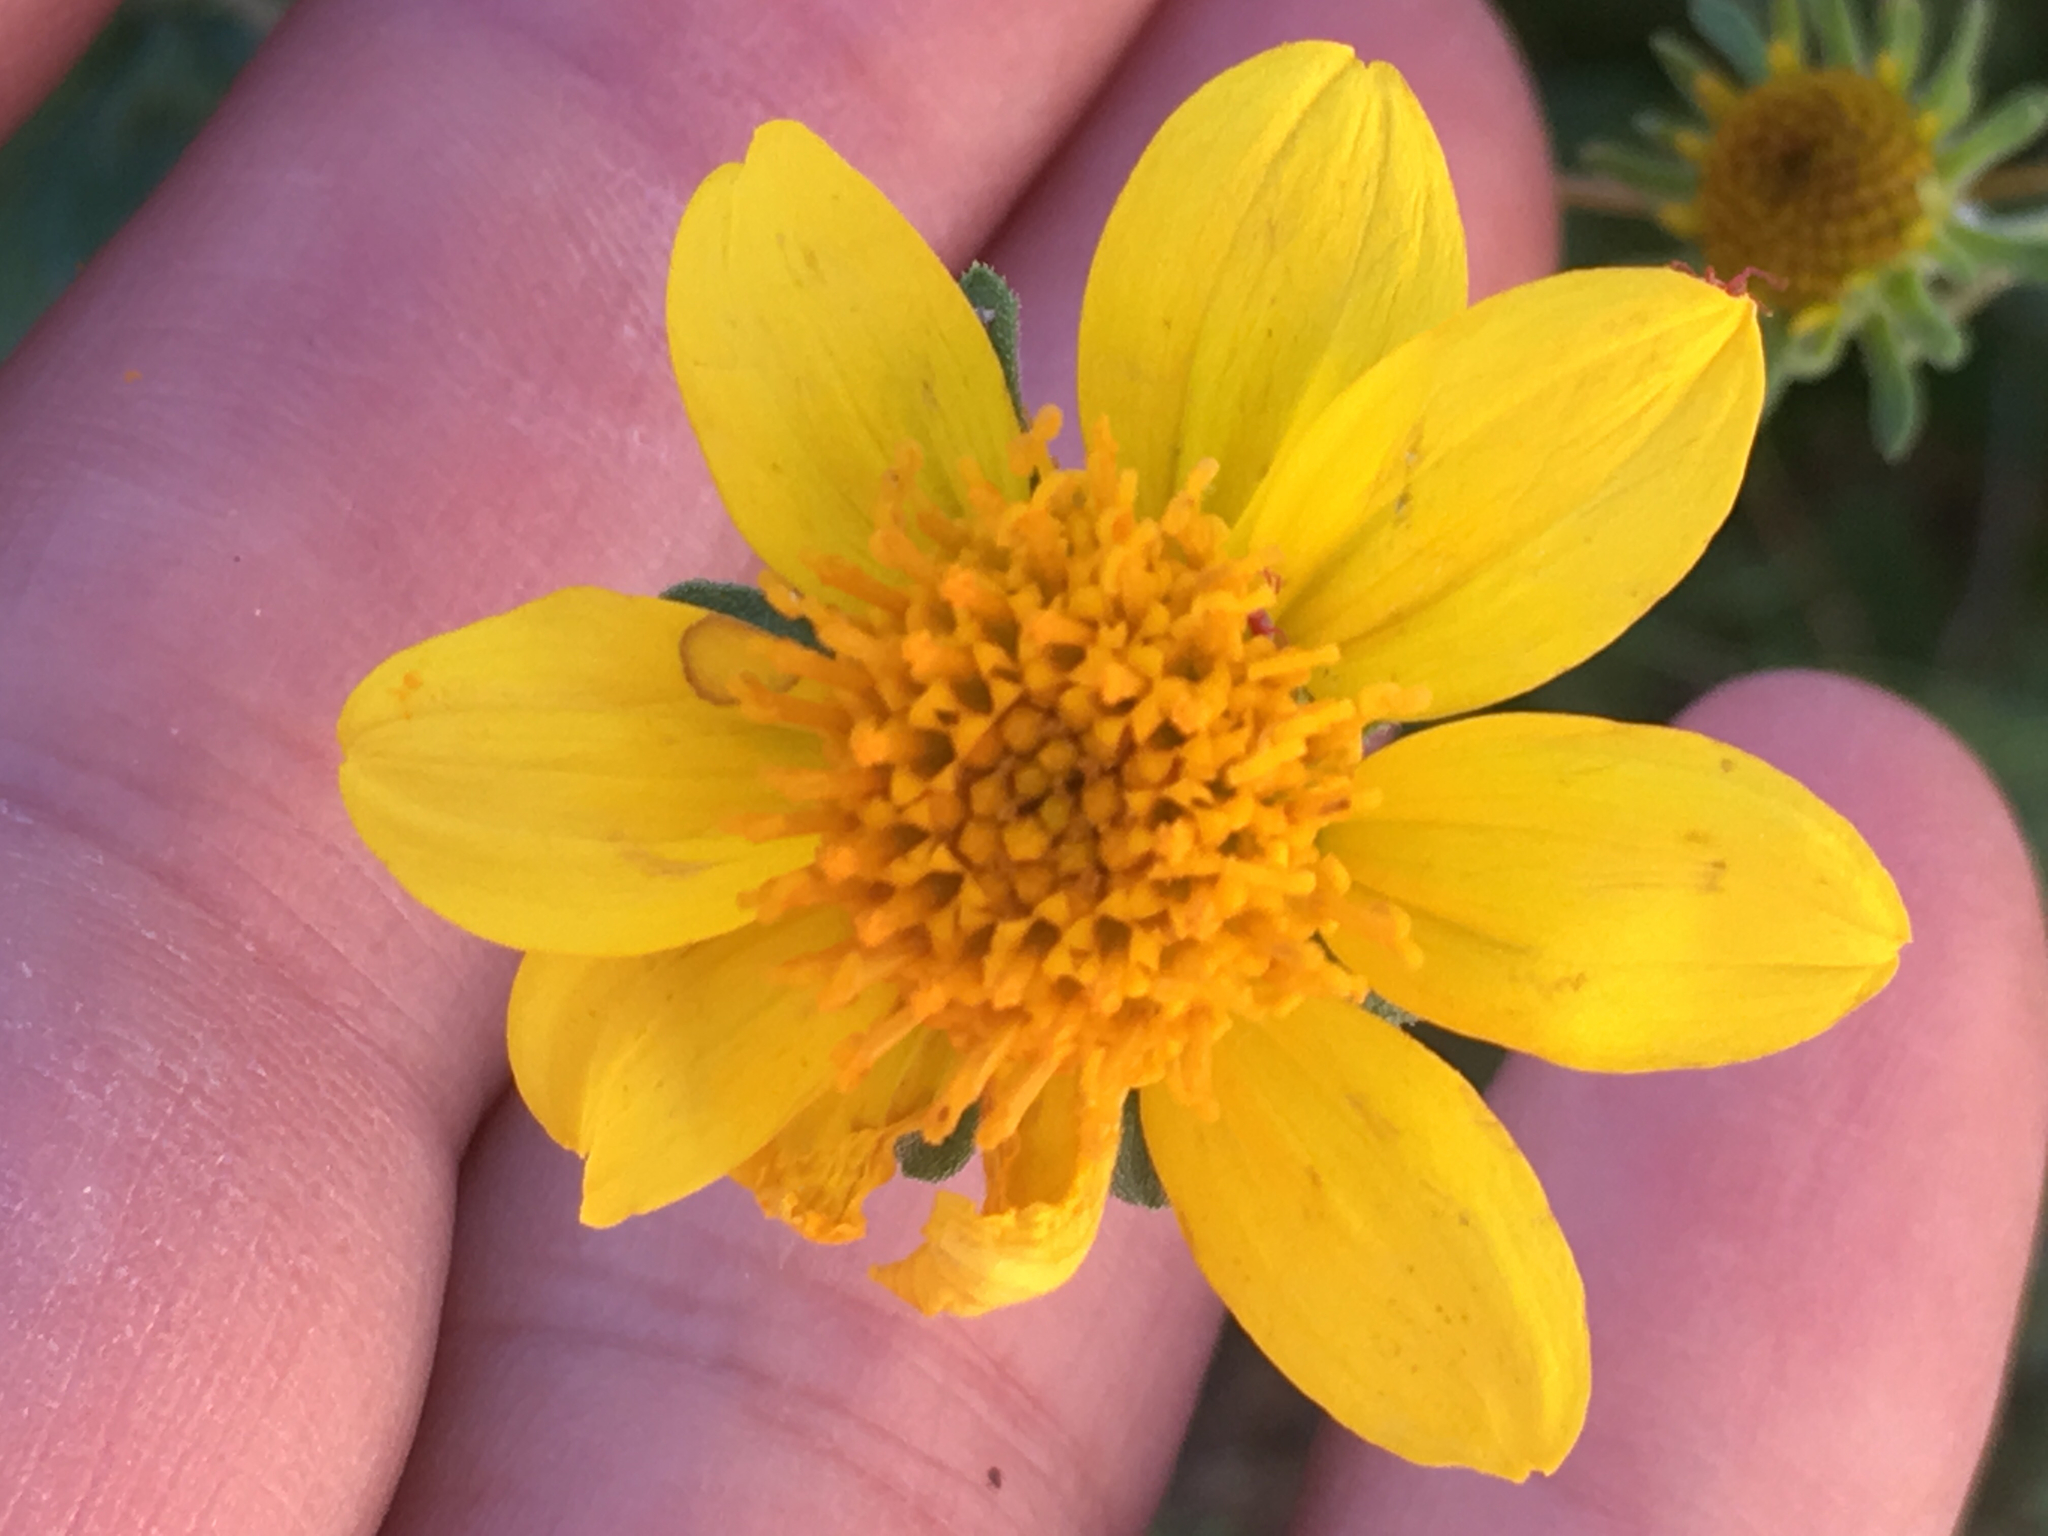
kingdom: Plantae
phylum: Tracheophyta
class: Magnoliopsida
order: Asterales
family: Asteraceae
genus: Bahiopsis
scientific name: Bahiopsis parishii
